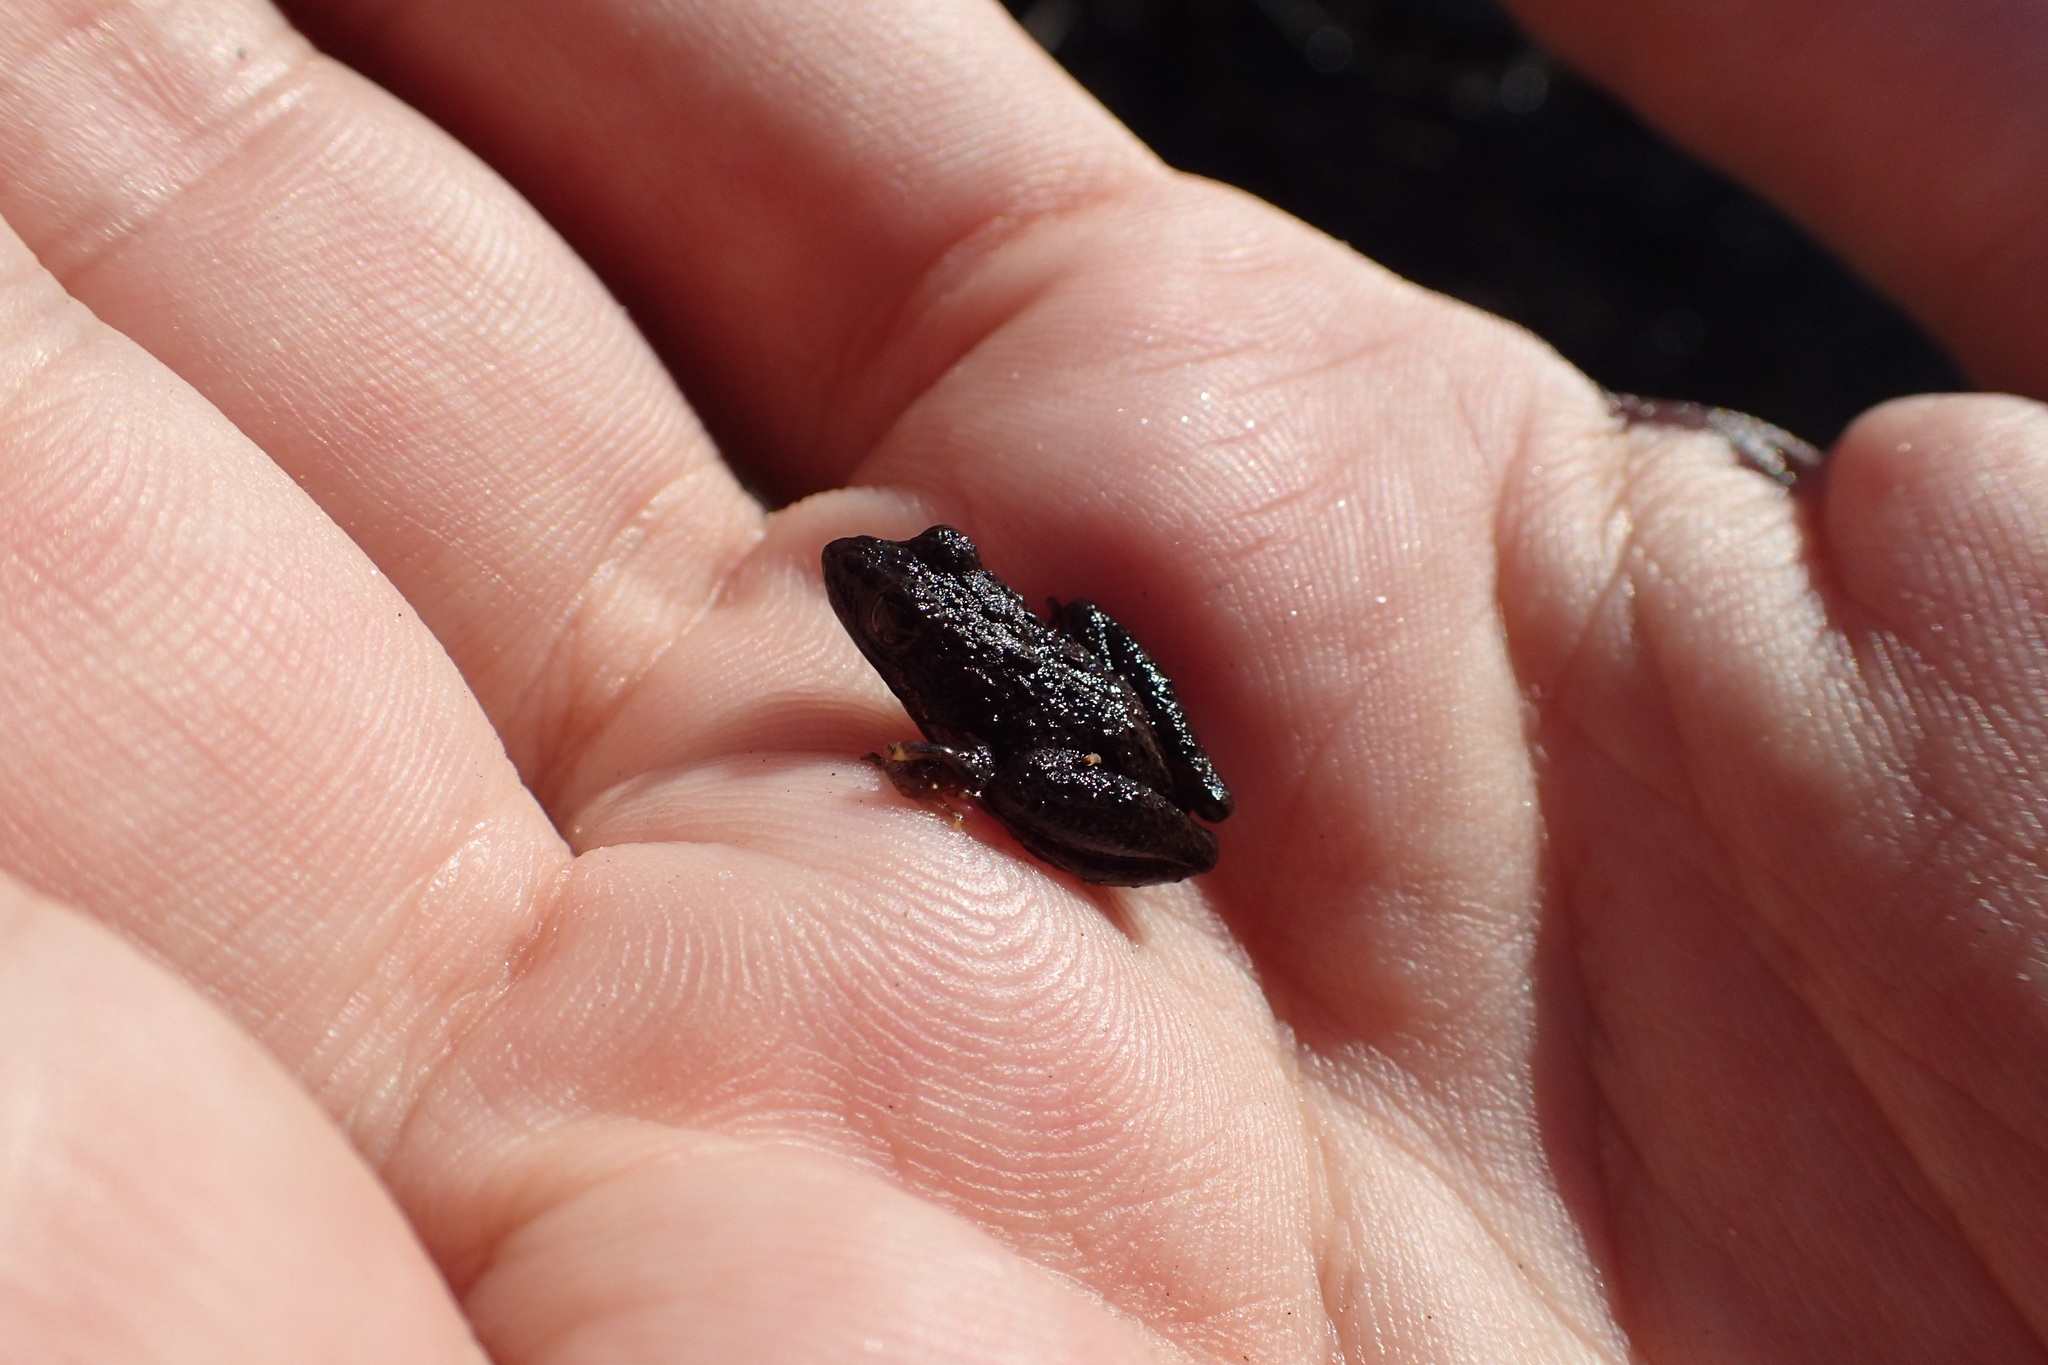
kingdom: Animalia
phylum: Chordata
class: Amphibia
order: Anura
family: Hylidae
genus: Acris
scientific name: Acris gryllus
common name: Southern cricket frog
